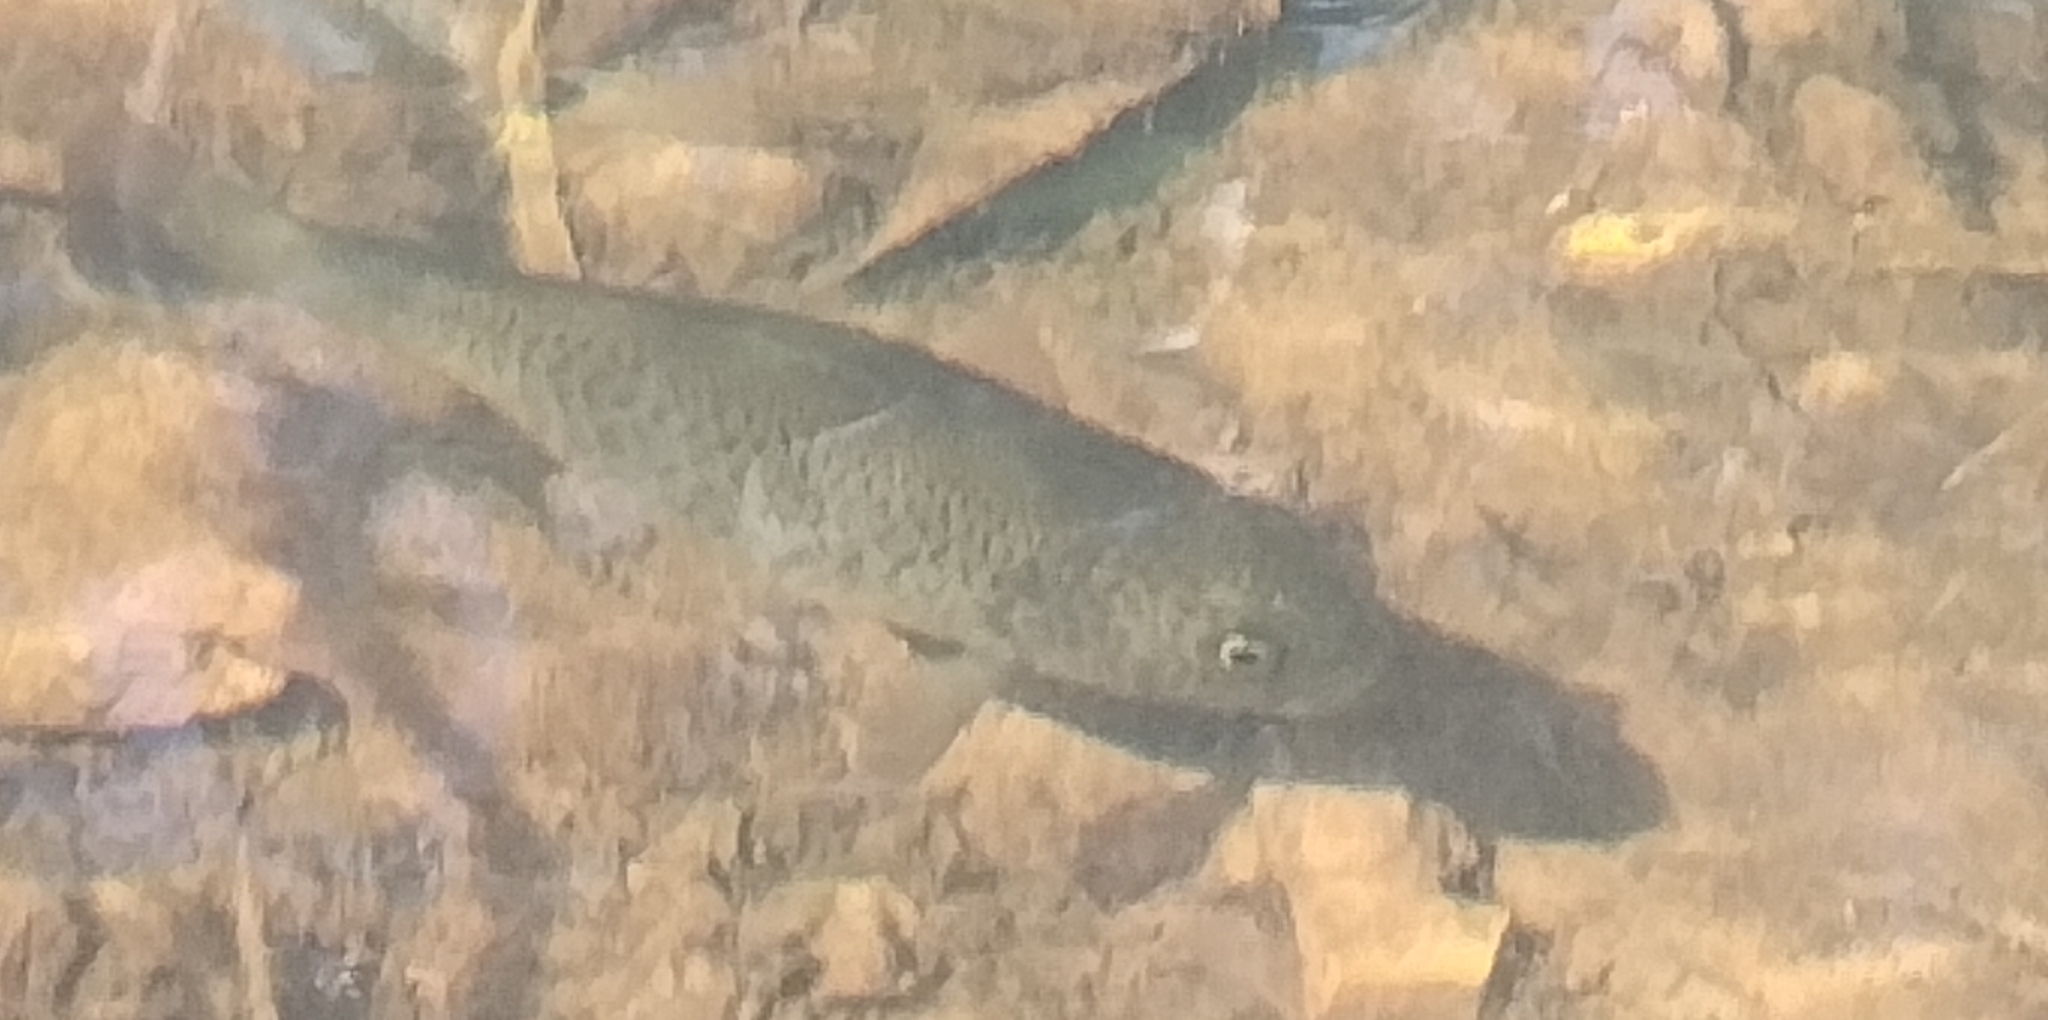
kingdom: Animalia
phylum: Chordata
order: Perciformes
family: Terapontidae
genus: Leiopotherapon
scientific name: Leiopotherapon unicolor
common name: Bobby
